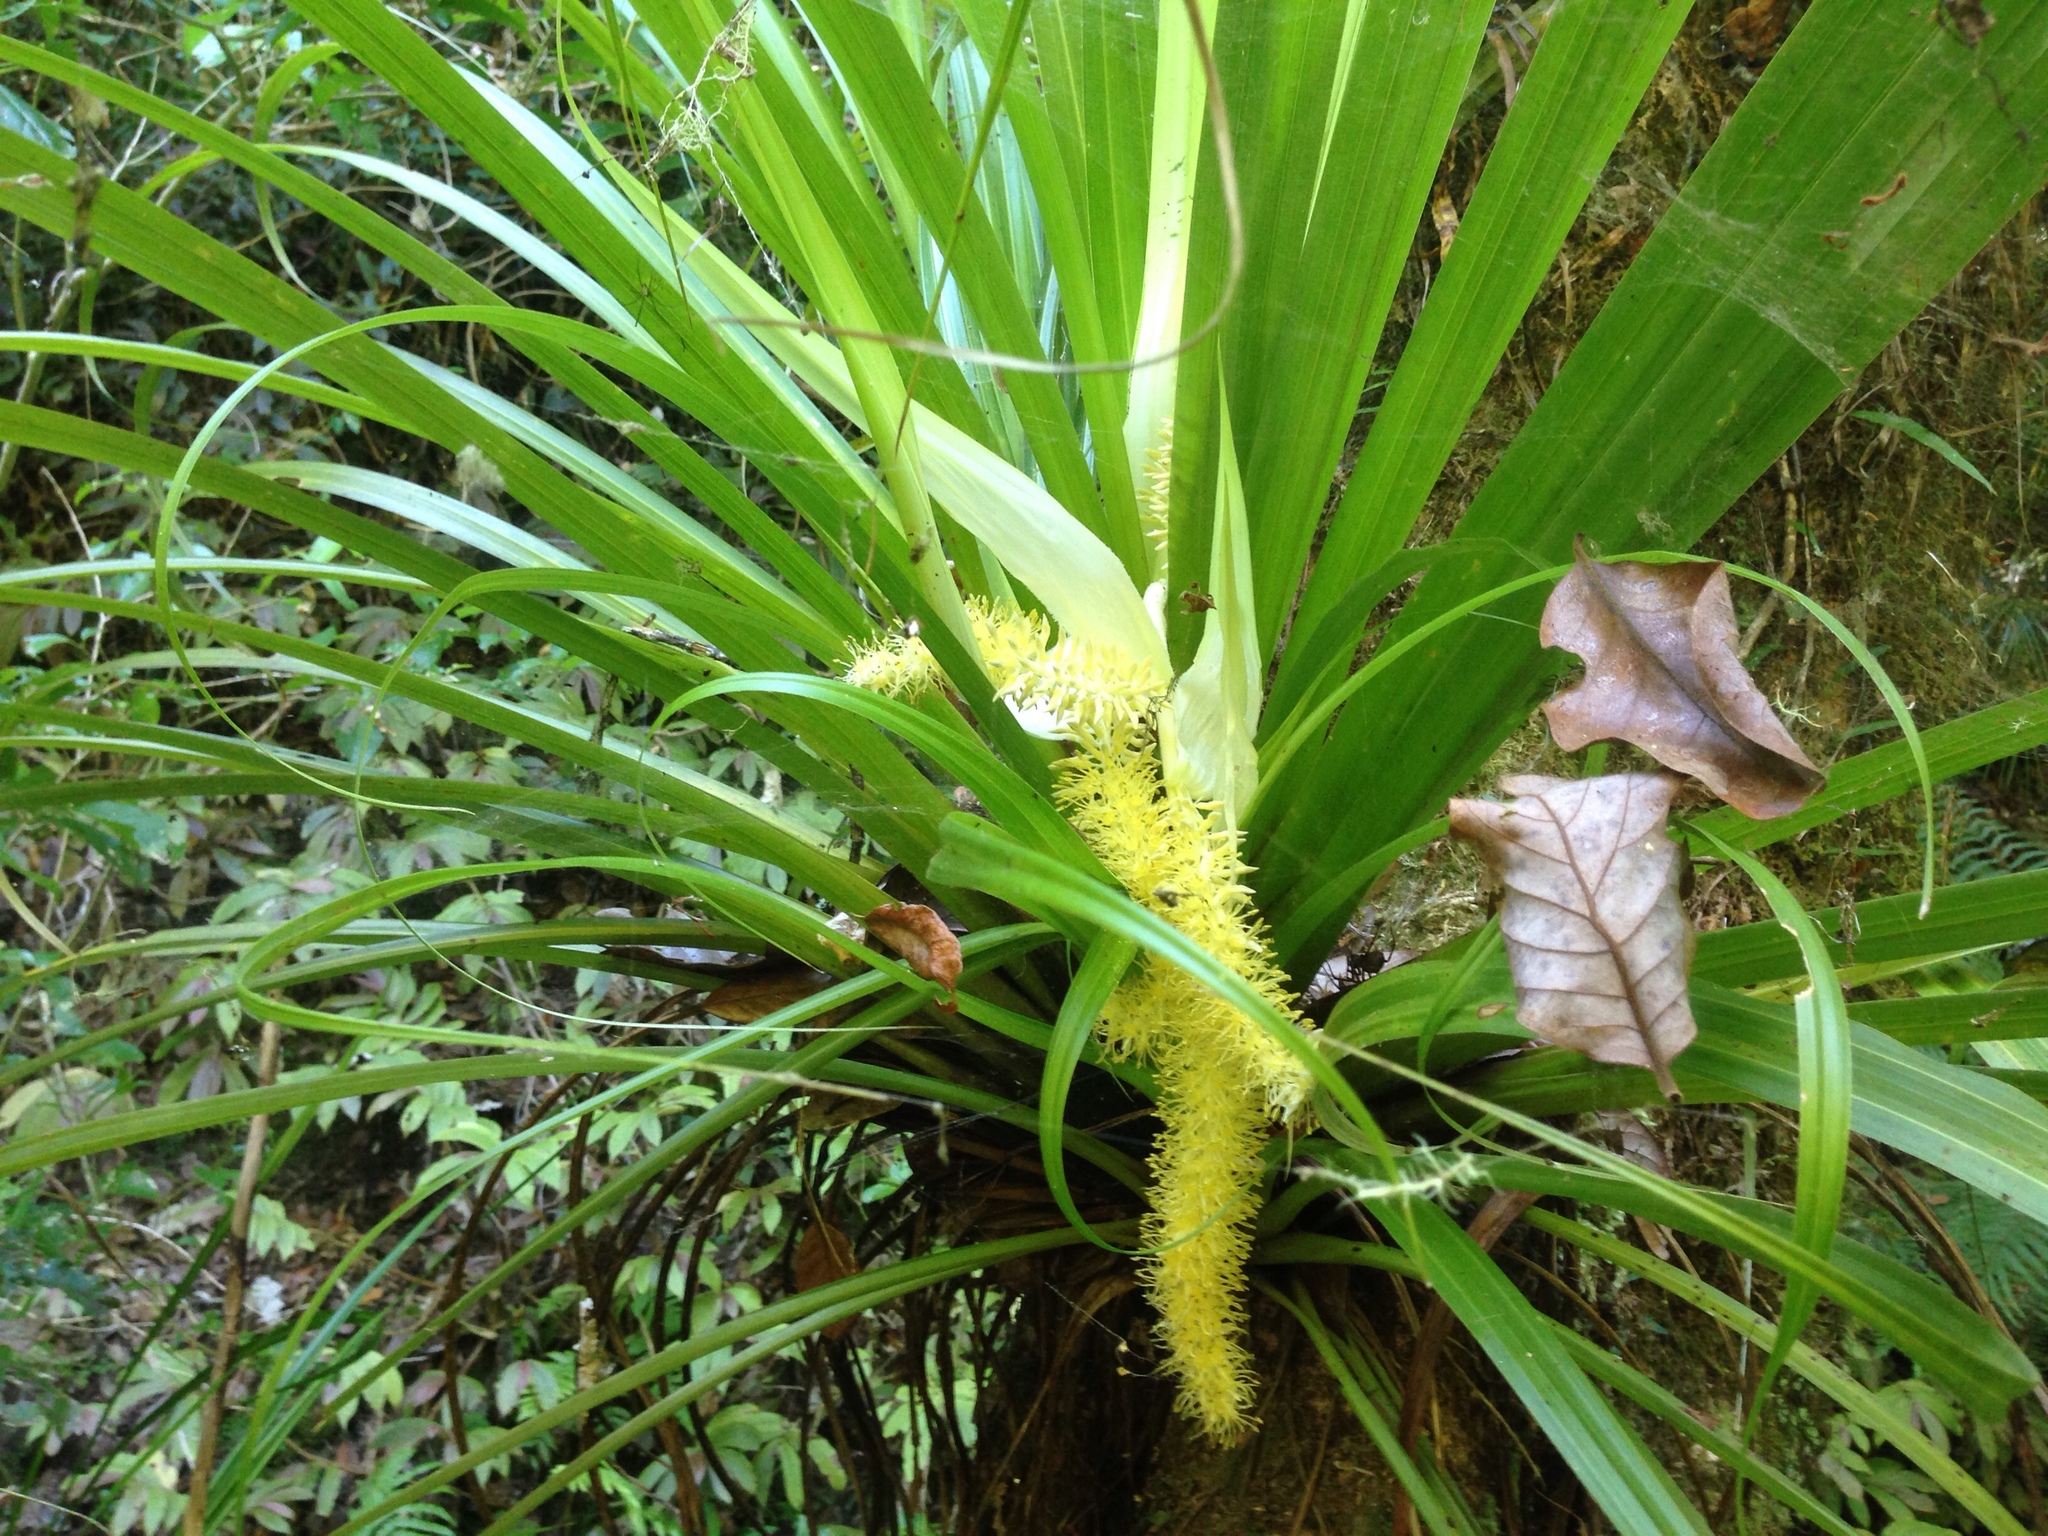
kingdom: Plantae
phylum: Tracheophyta
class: Liliopsida
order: Asparagales
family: Asteliaceae
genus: Astelia
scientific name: Astelia hastata
